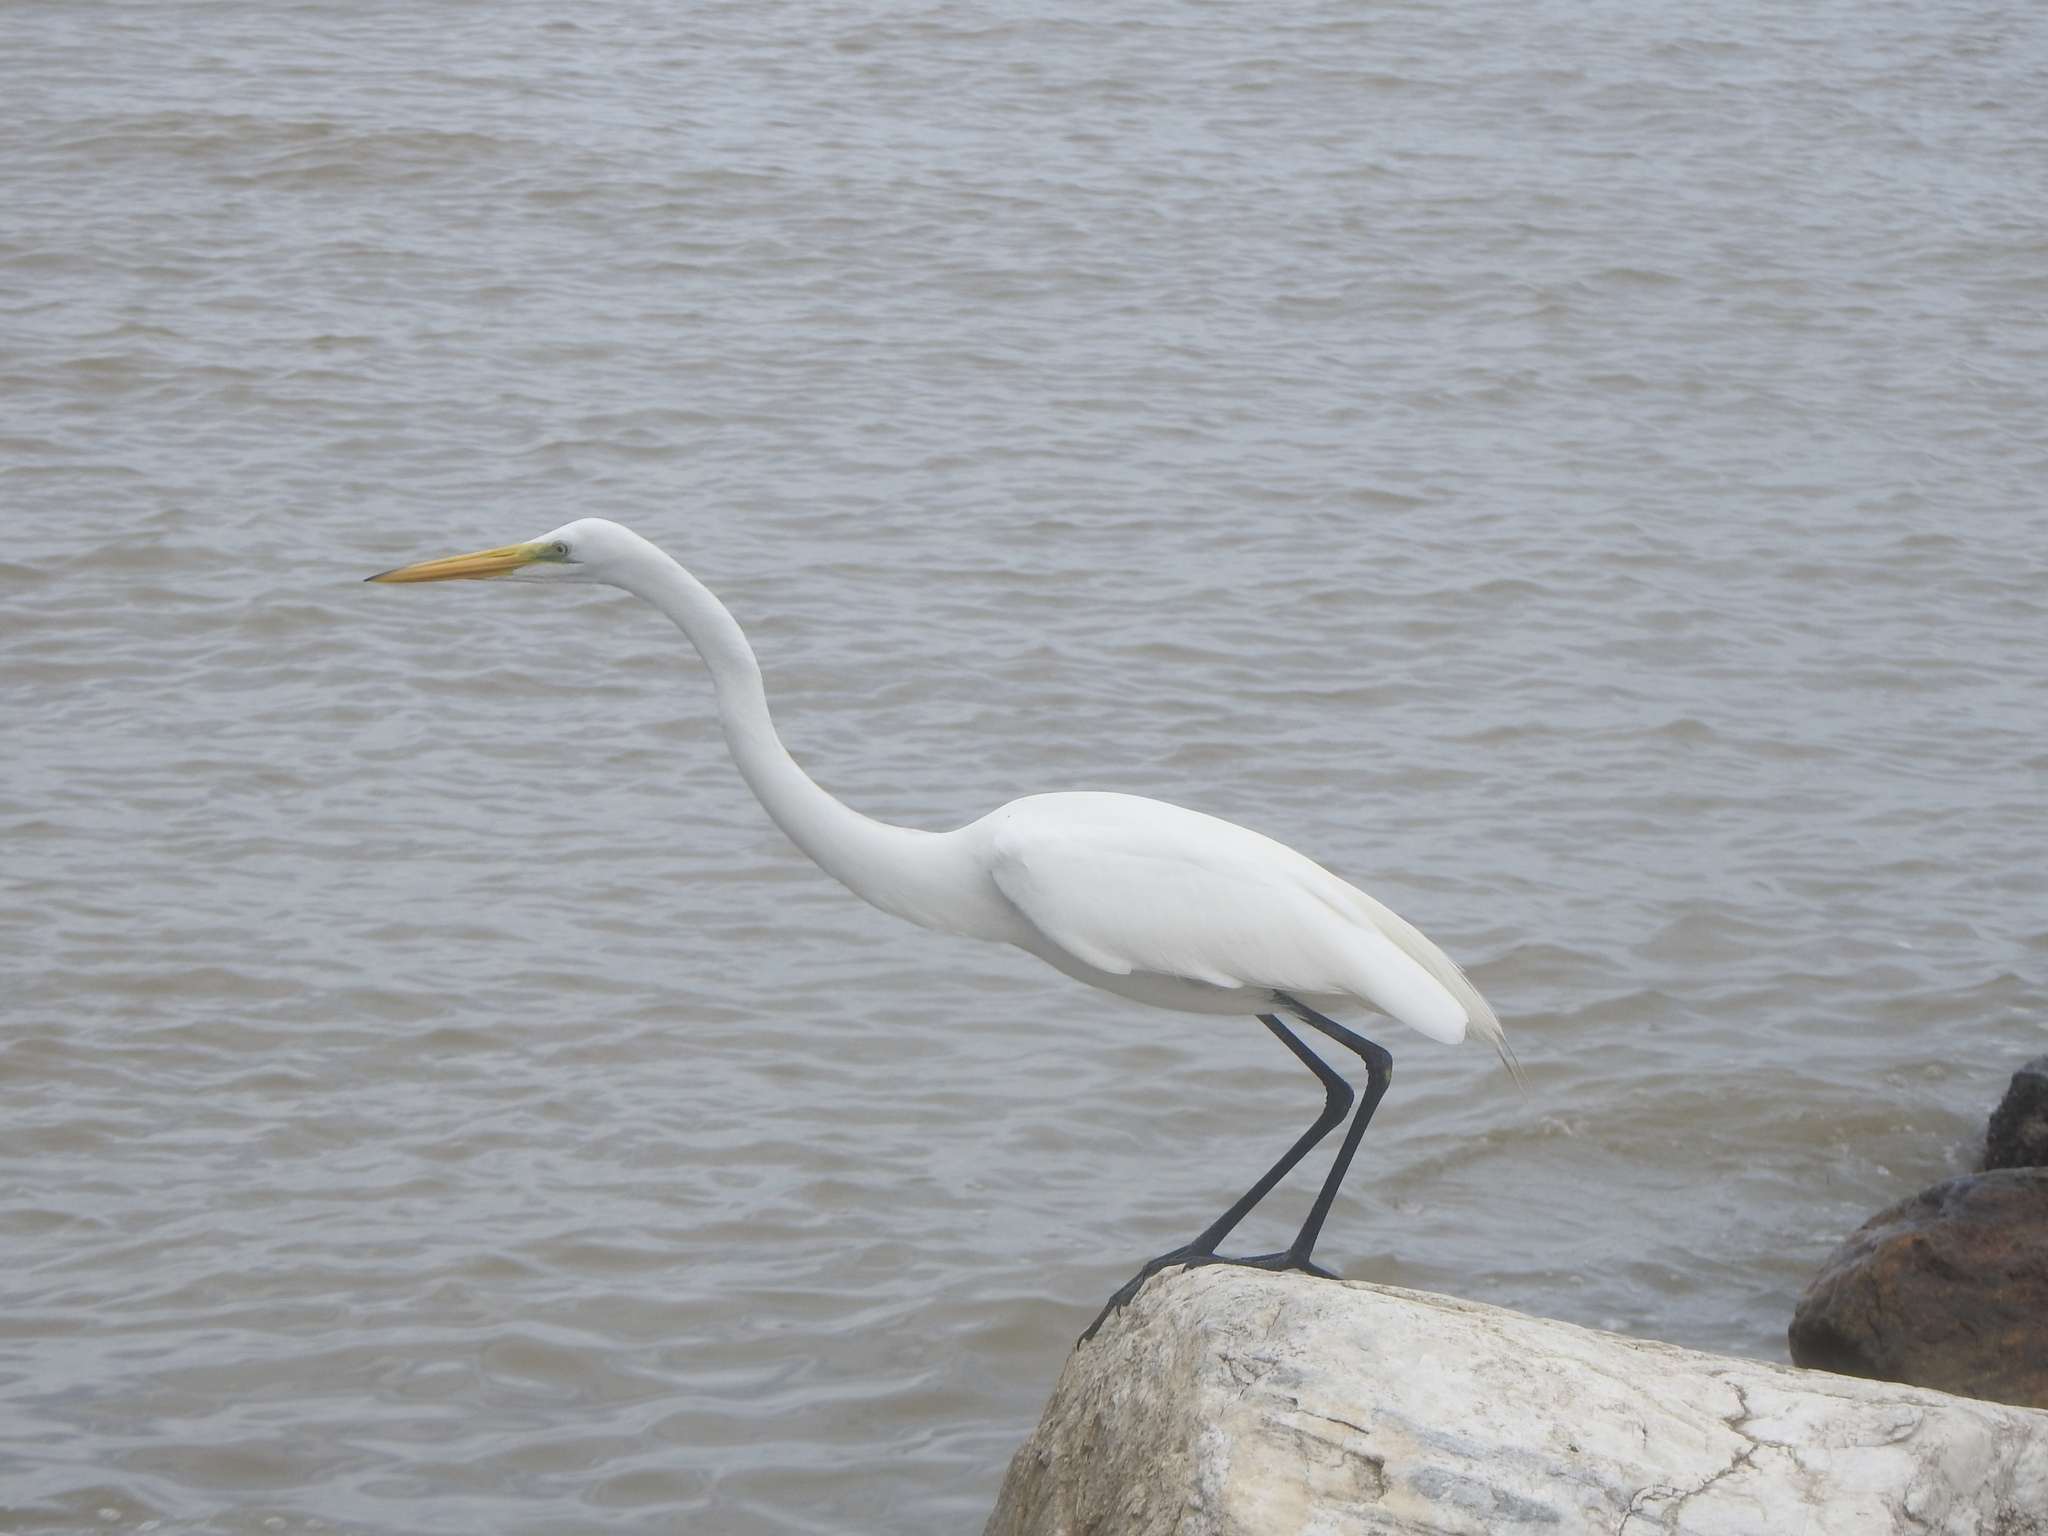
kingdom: Animalia
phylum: Chordata
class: Aves
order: Pelecaniformes
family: Ardeidae
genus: Ardea
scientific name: Ardea alba
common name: Great egret
